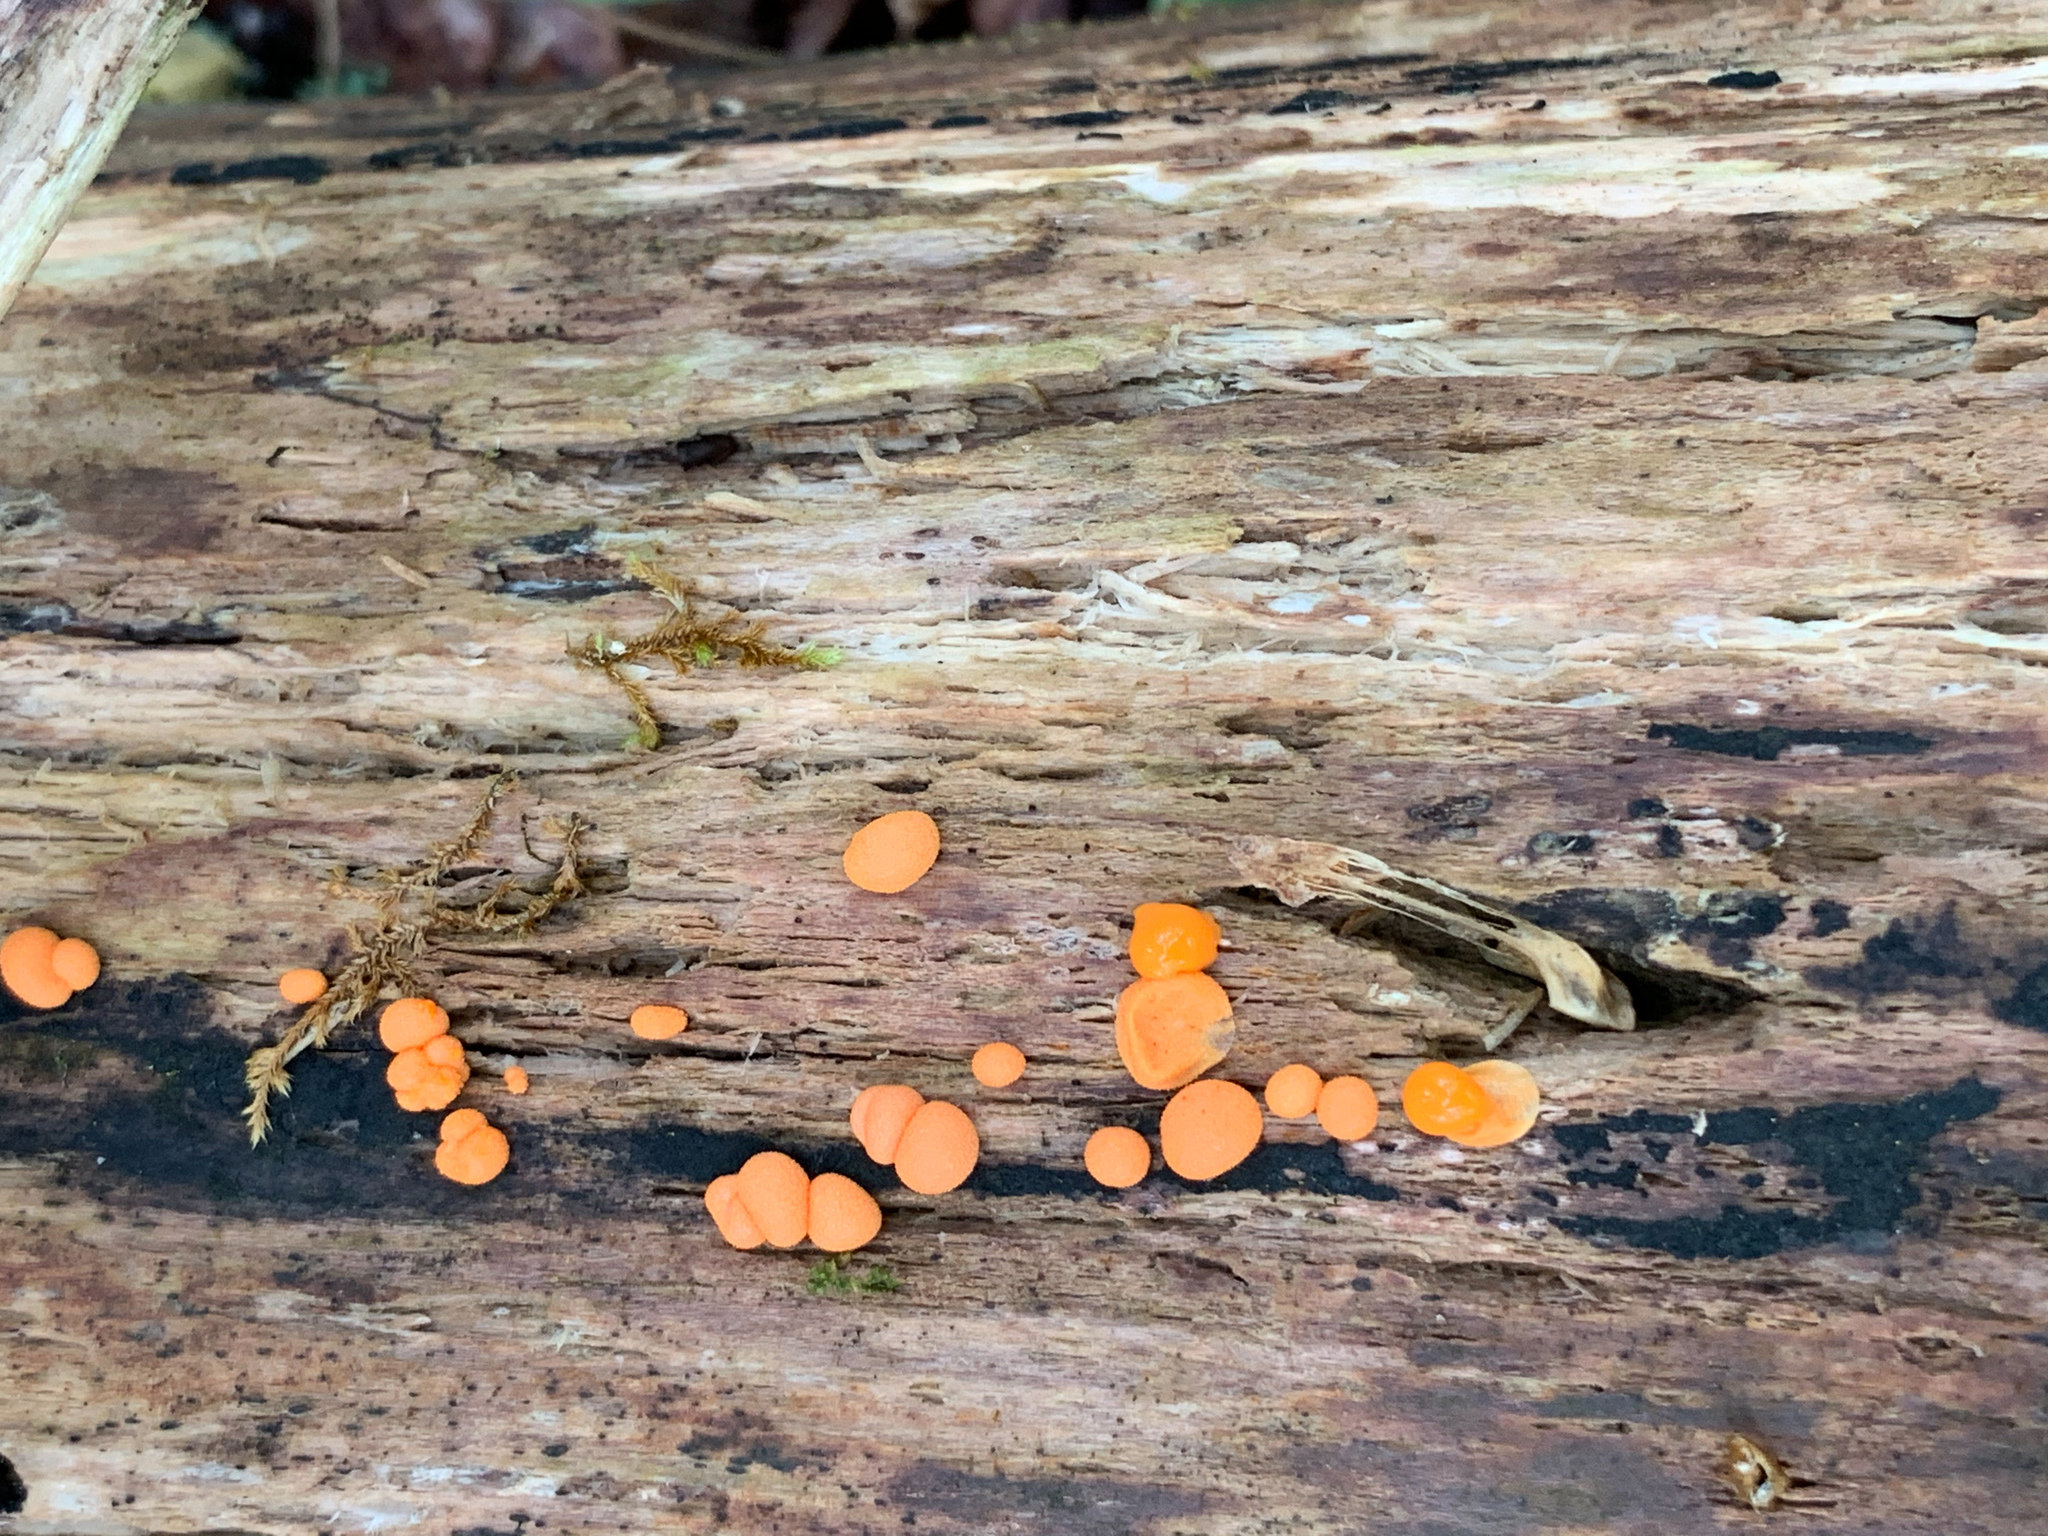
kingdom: Protozoa
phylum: Mycetozoa
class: Myxomycetes
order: Cribrariales
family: Tubiferaceae
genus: Lycogala
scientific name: Lycogala epidendrum
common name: Wolf's milk
